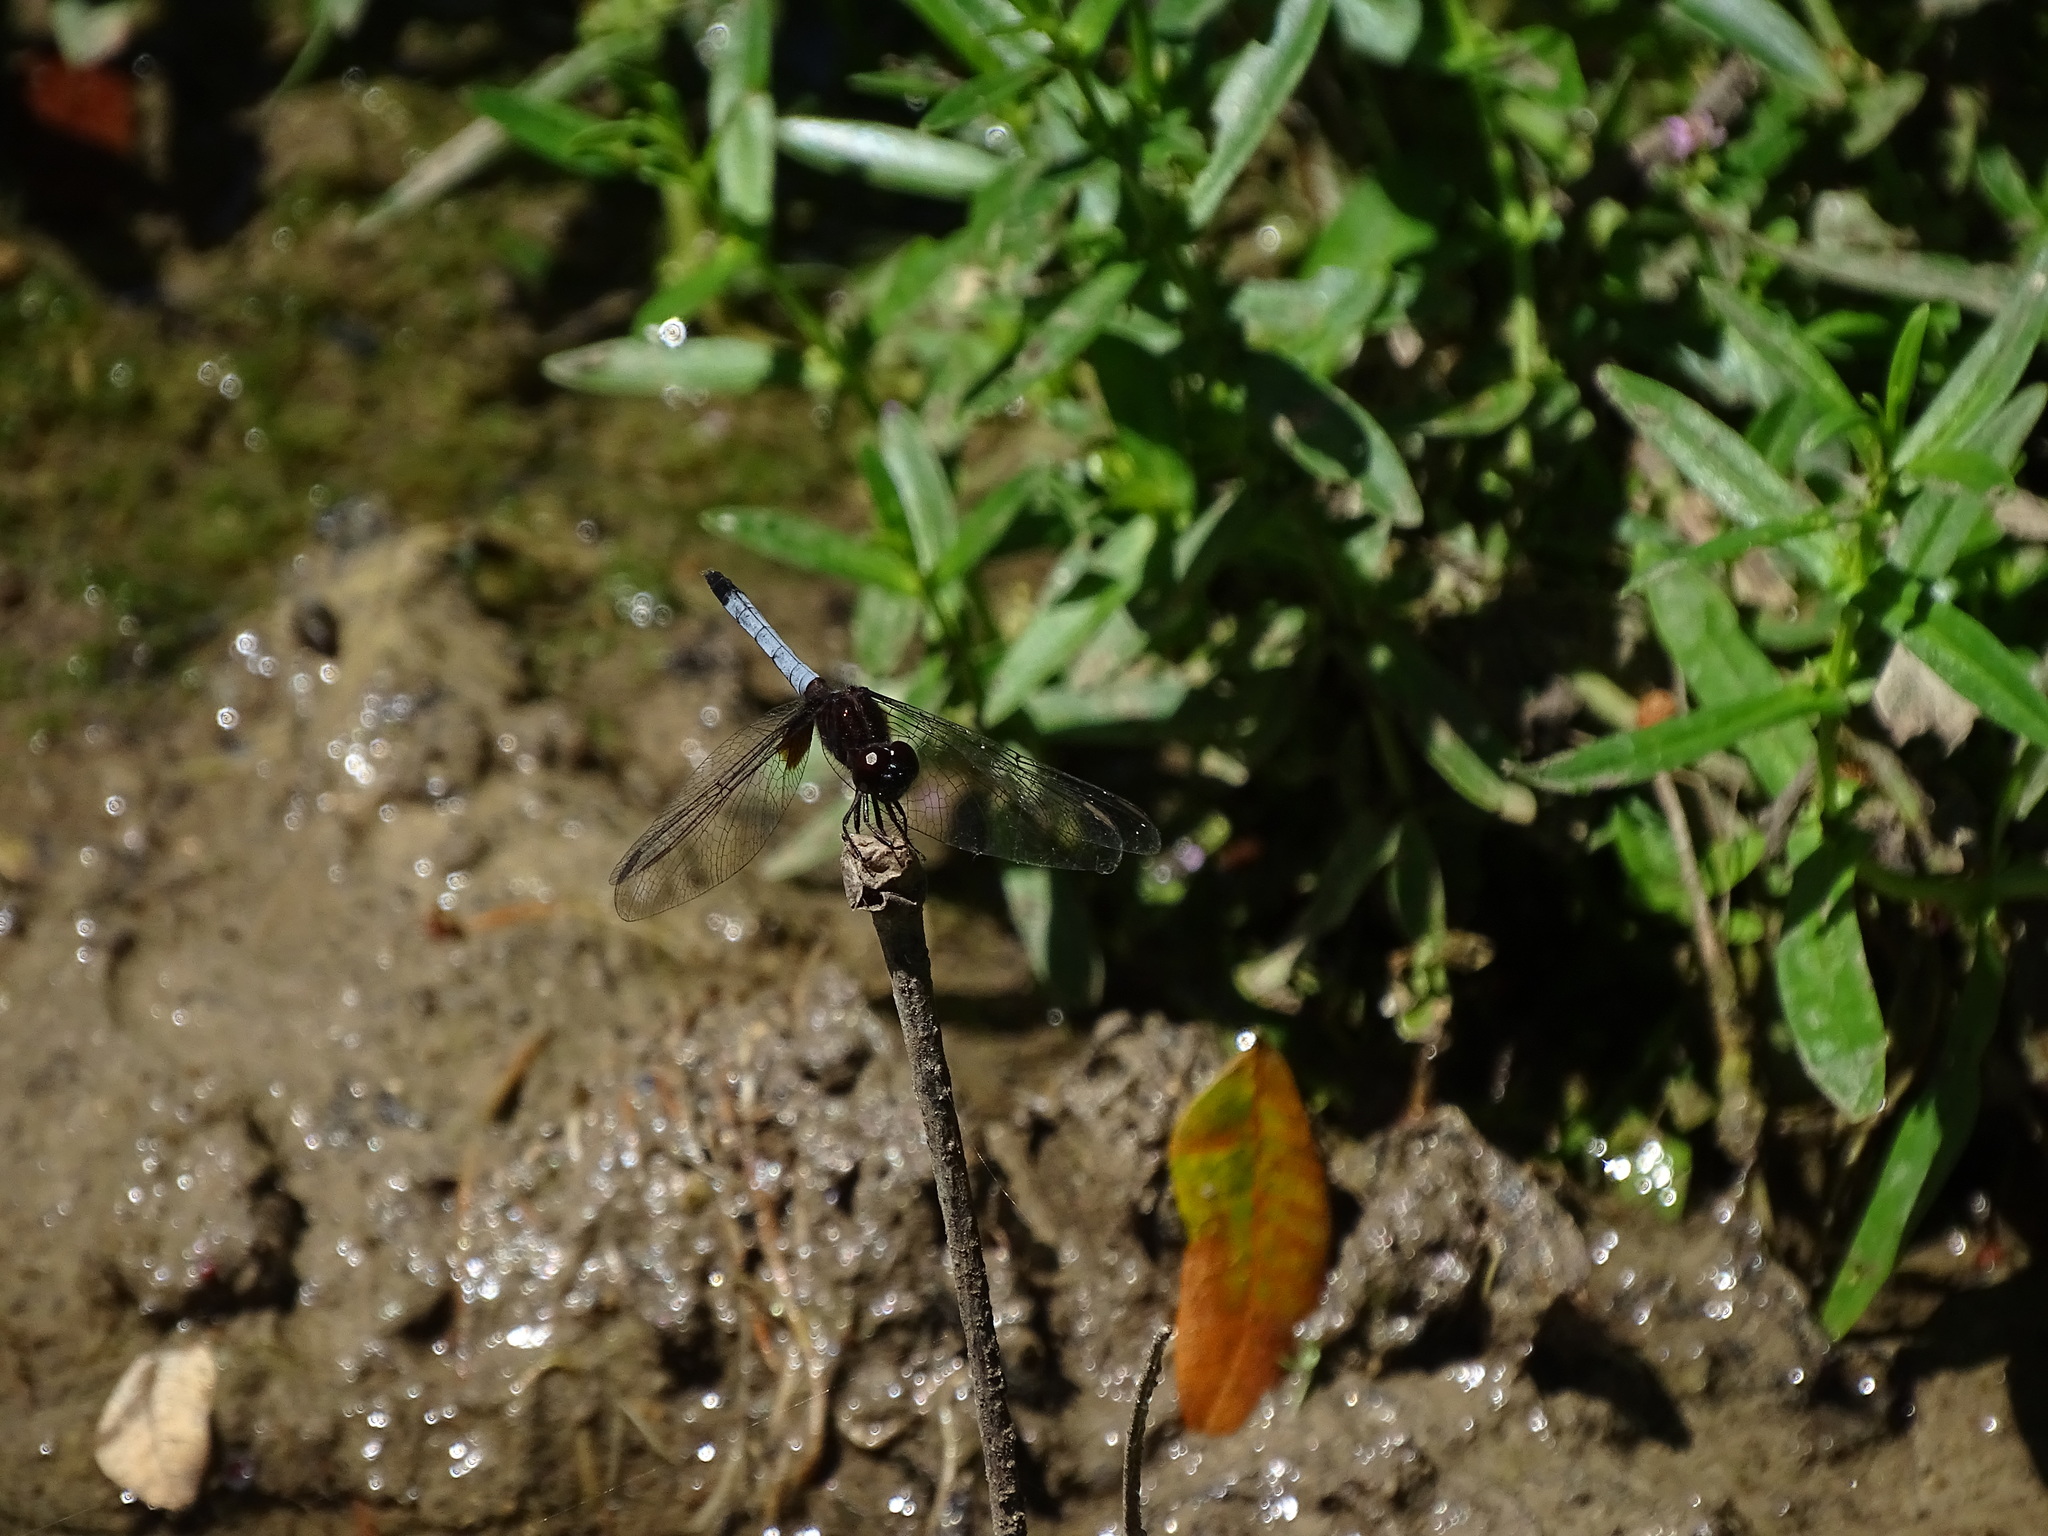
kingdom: Animalia
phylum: Arthropoda
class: Insecta
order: Odonata
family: Libellulidae
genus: Erythrodiplax
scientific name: Erythrodiplax justiniana
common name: Antillean dragonlet
